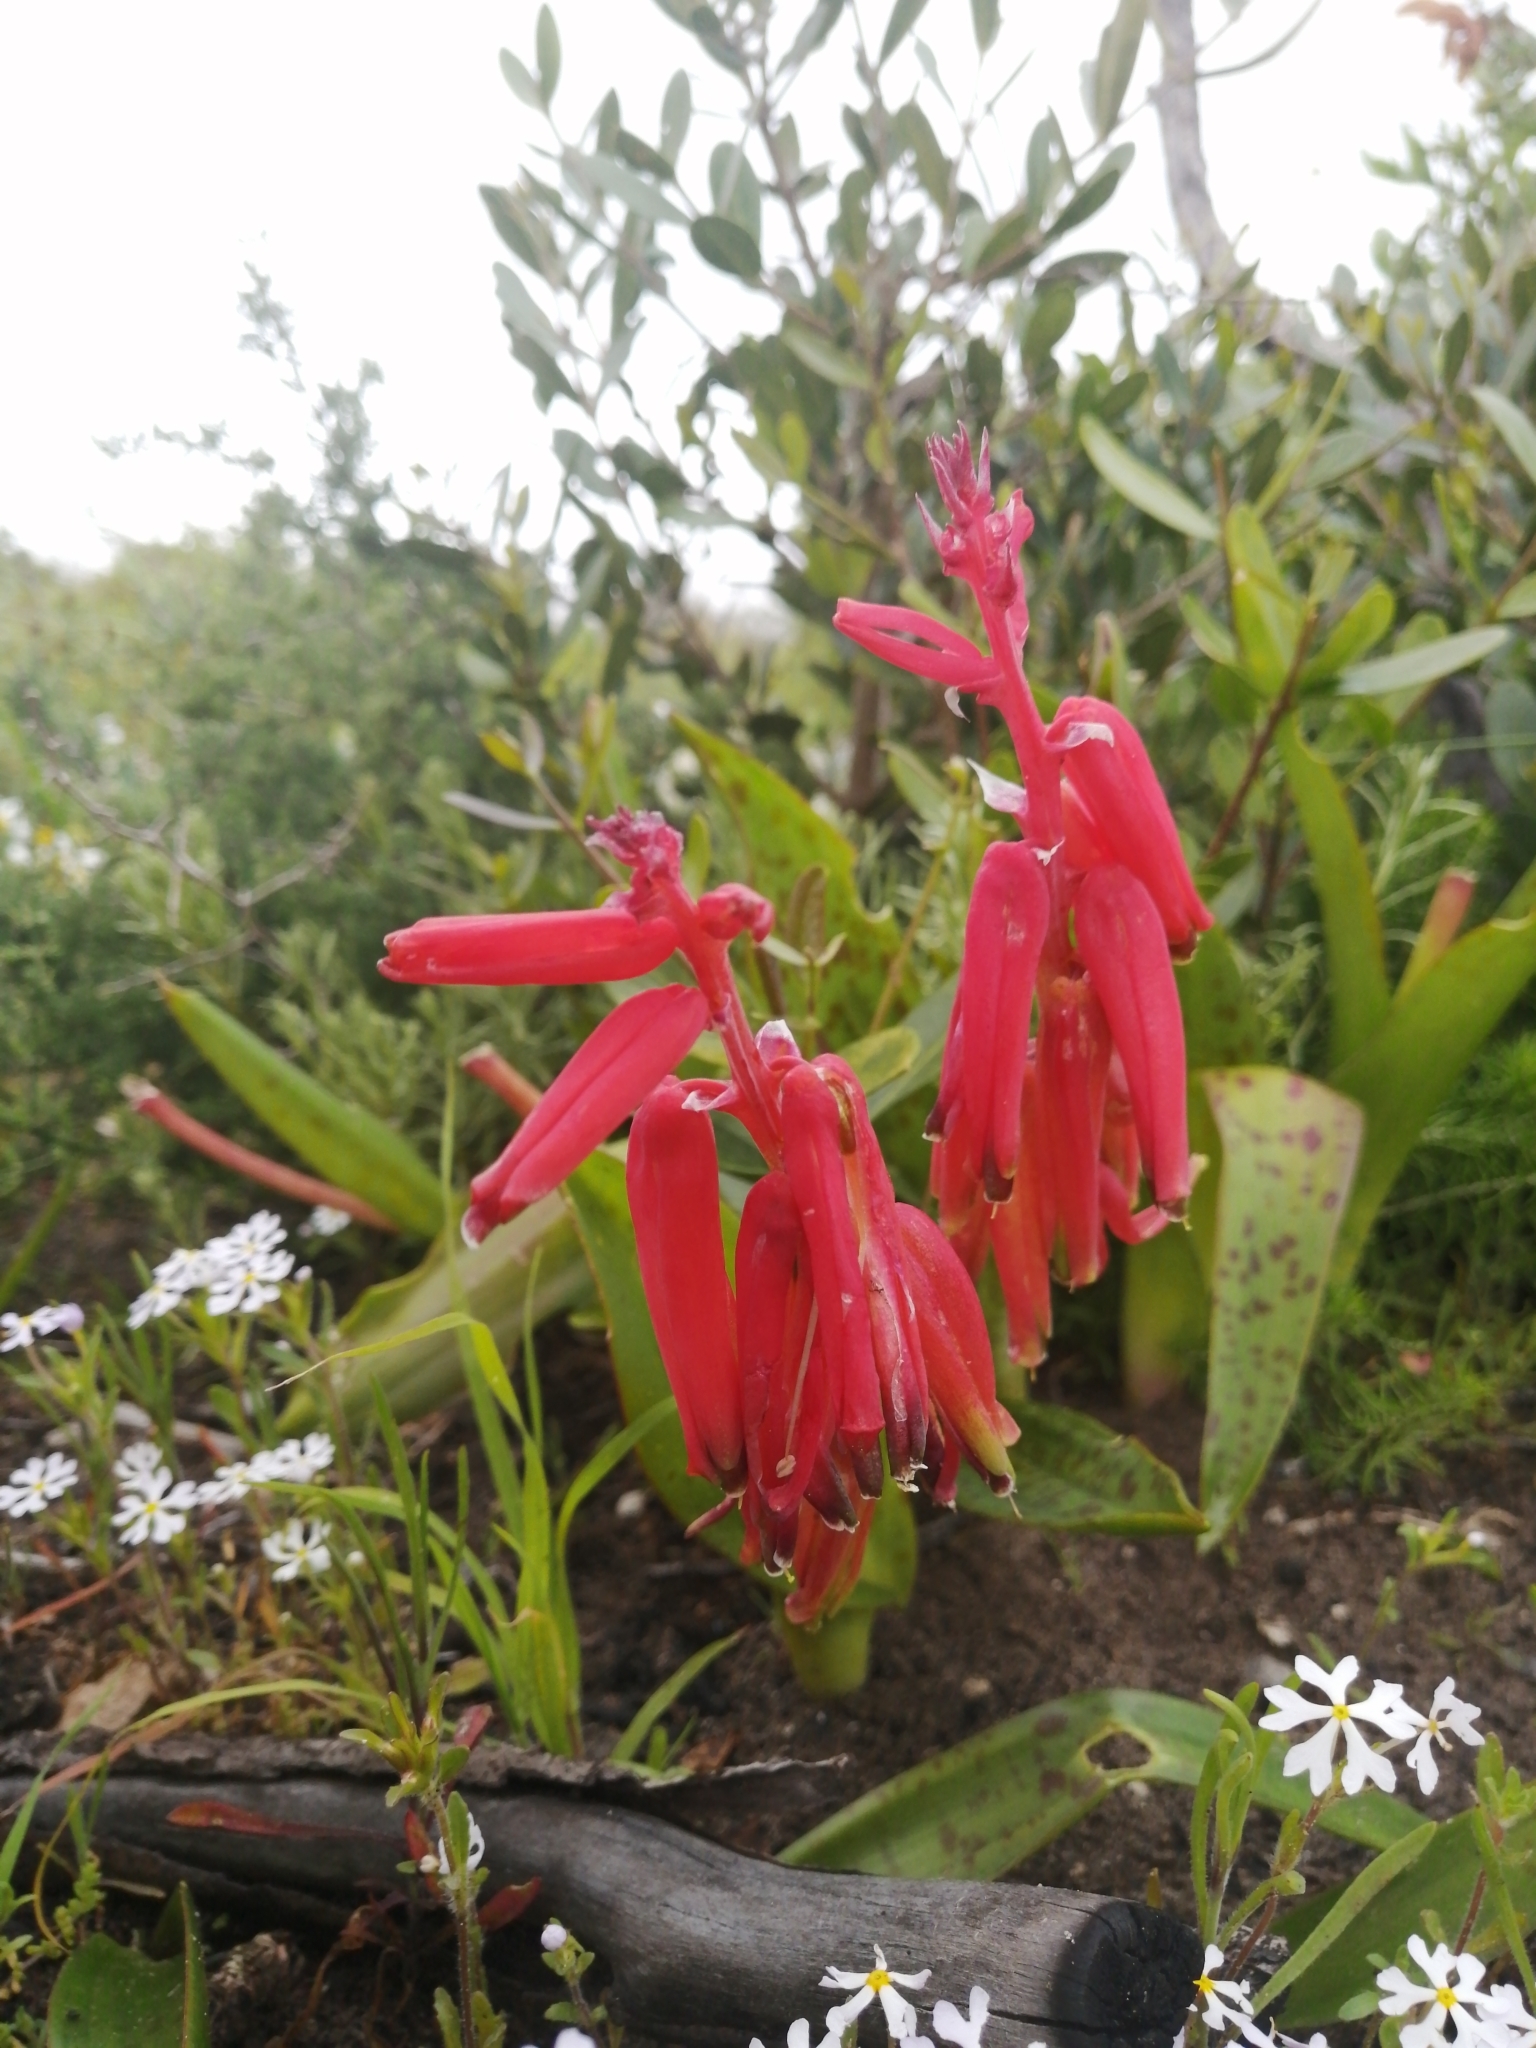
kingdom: Plantae
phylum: Tracheophyta
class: Liliopsida
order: Asparagales
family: Asparagaceae
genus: Lachenalia
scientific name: Lachenalia bulbifera
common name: Red lachenalia
